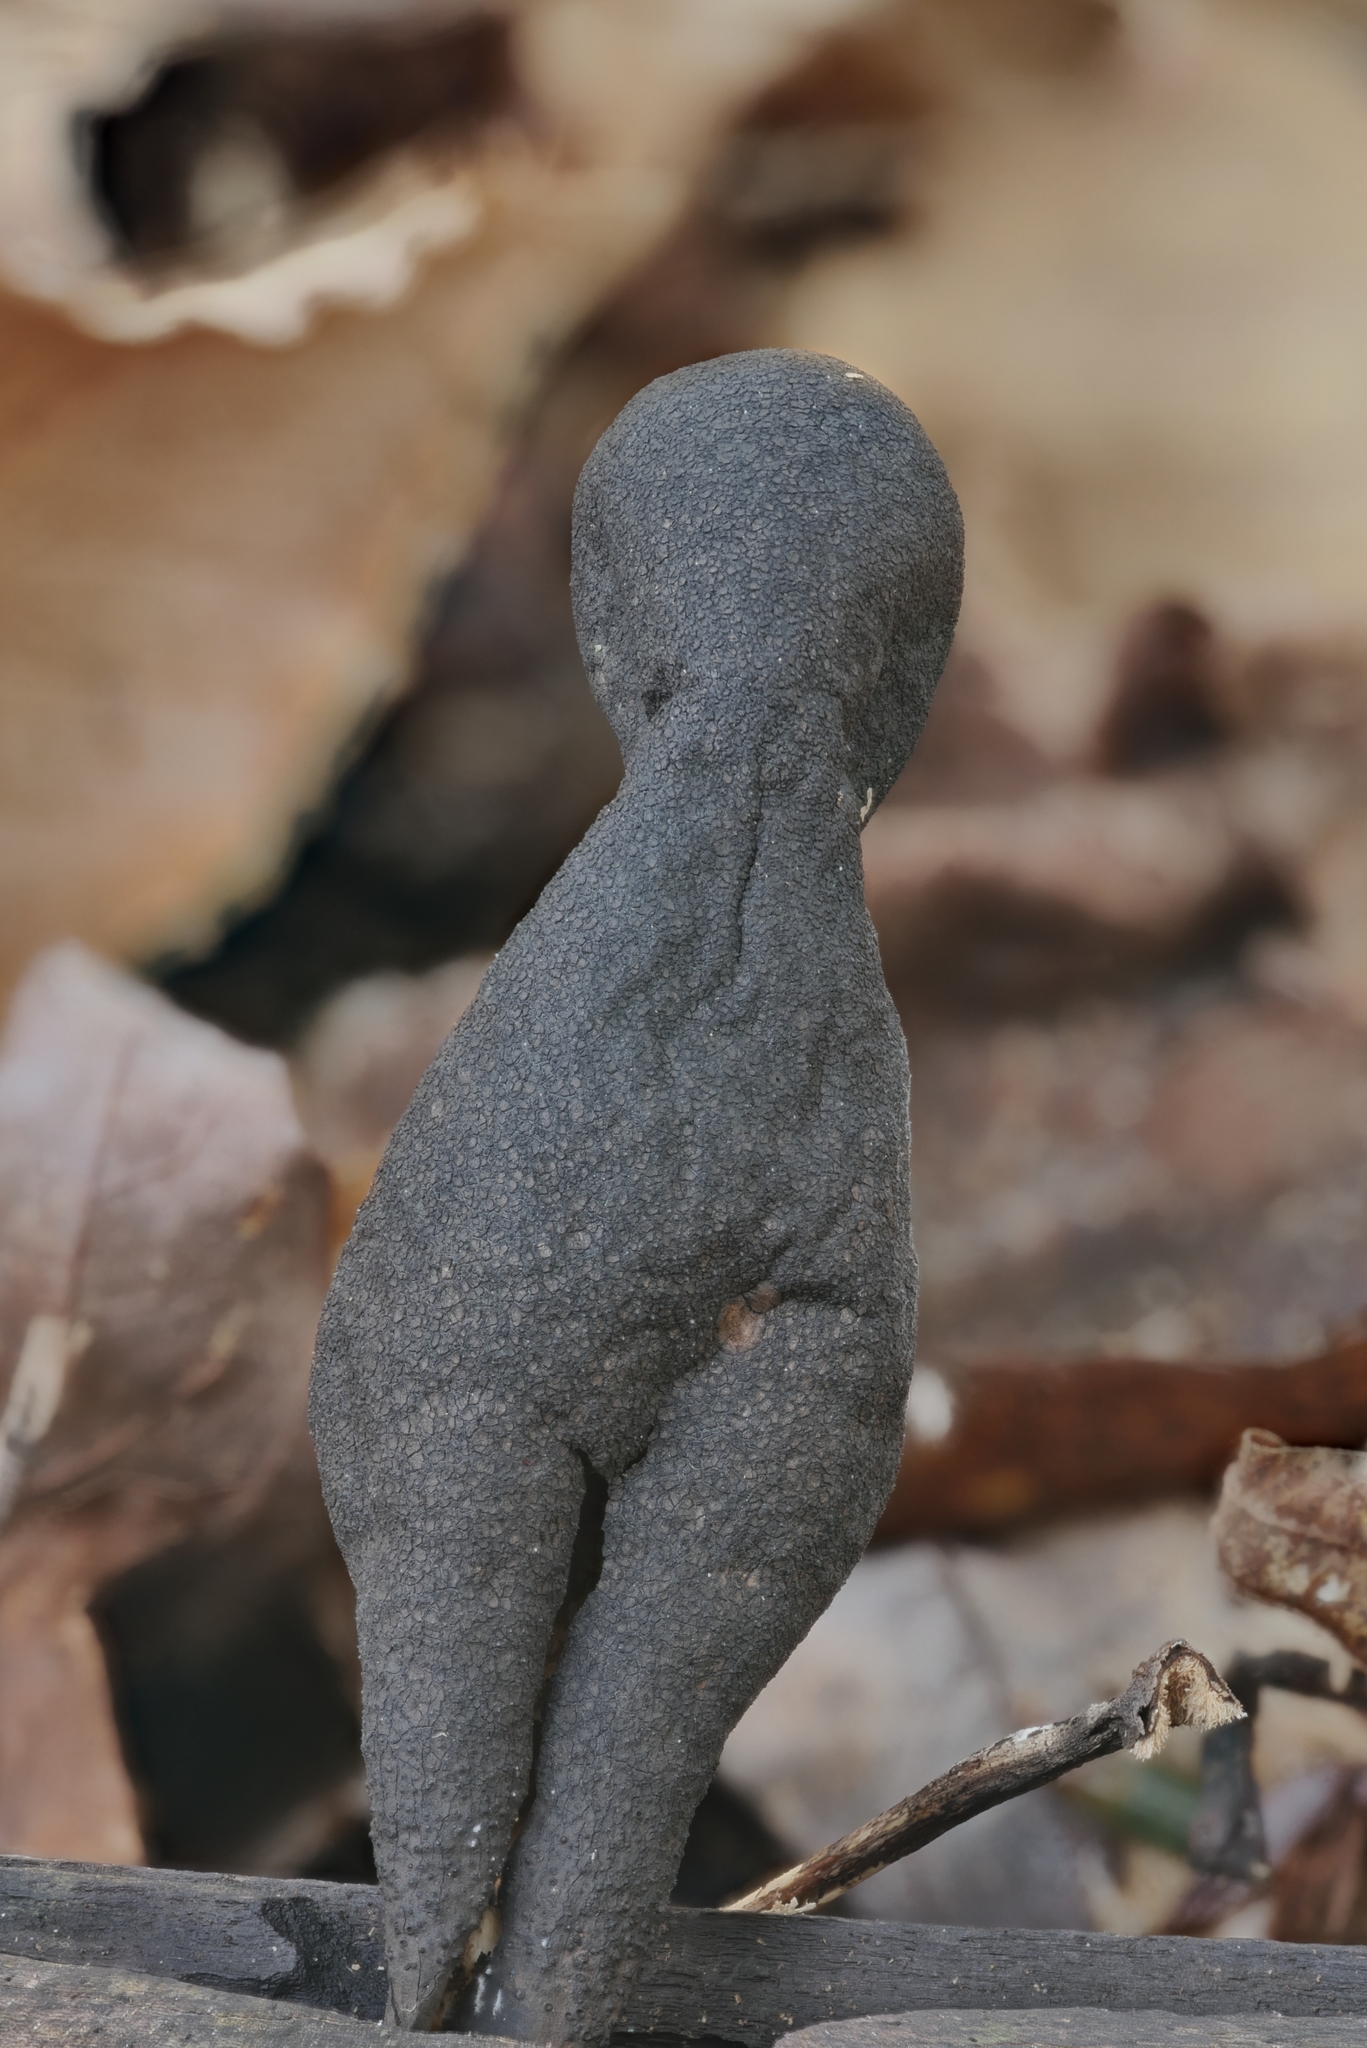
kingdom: Fungi
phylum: Ascomycota
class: Sordariomycetes
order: Xylariales
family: Xylariaceae
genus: Xylaria
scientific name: Xylaria polymorpha
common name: Dead man's fingers
